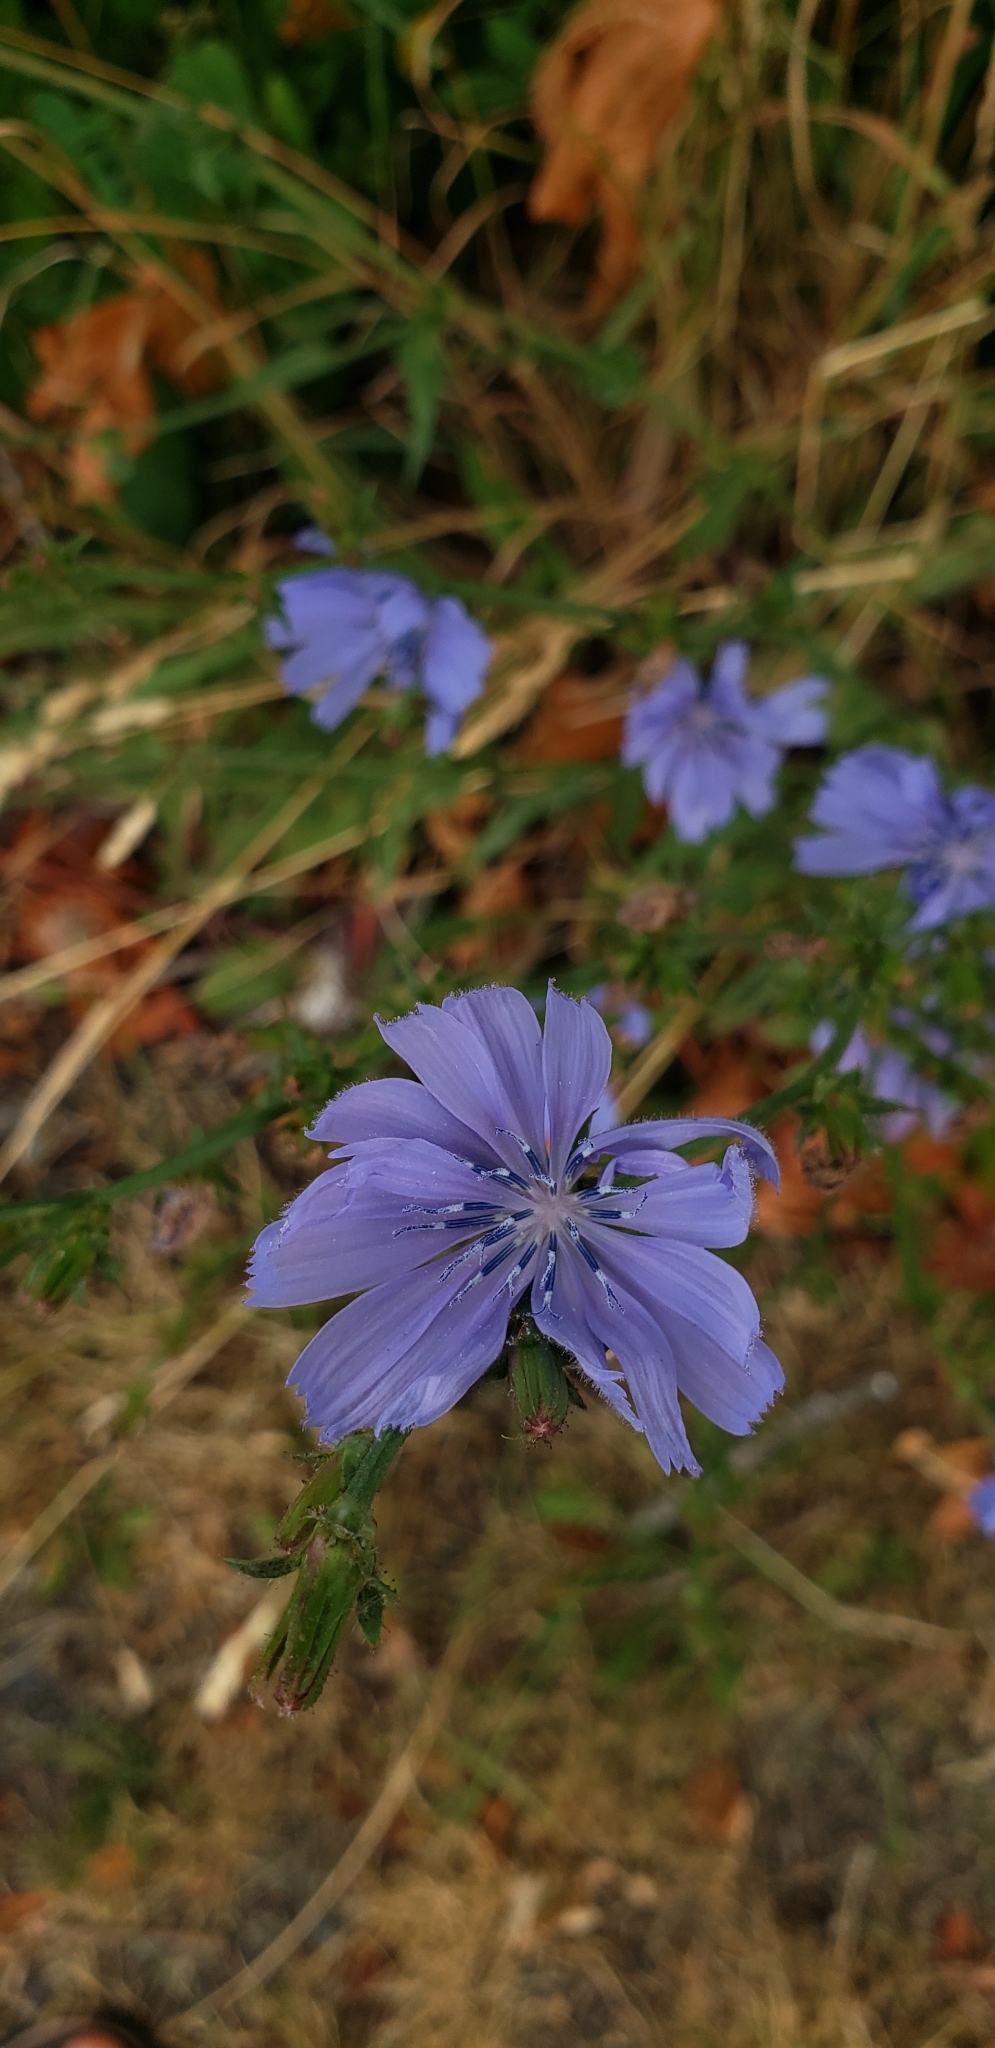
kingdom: Plantae
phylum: Tracheophyta
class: Magnoliopsida
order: Asterales
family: Asteraceae
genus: Cichorium
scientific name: Cichorium intybus
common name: Chicory
